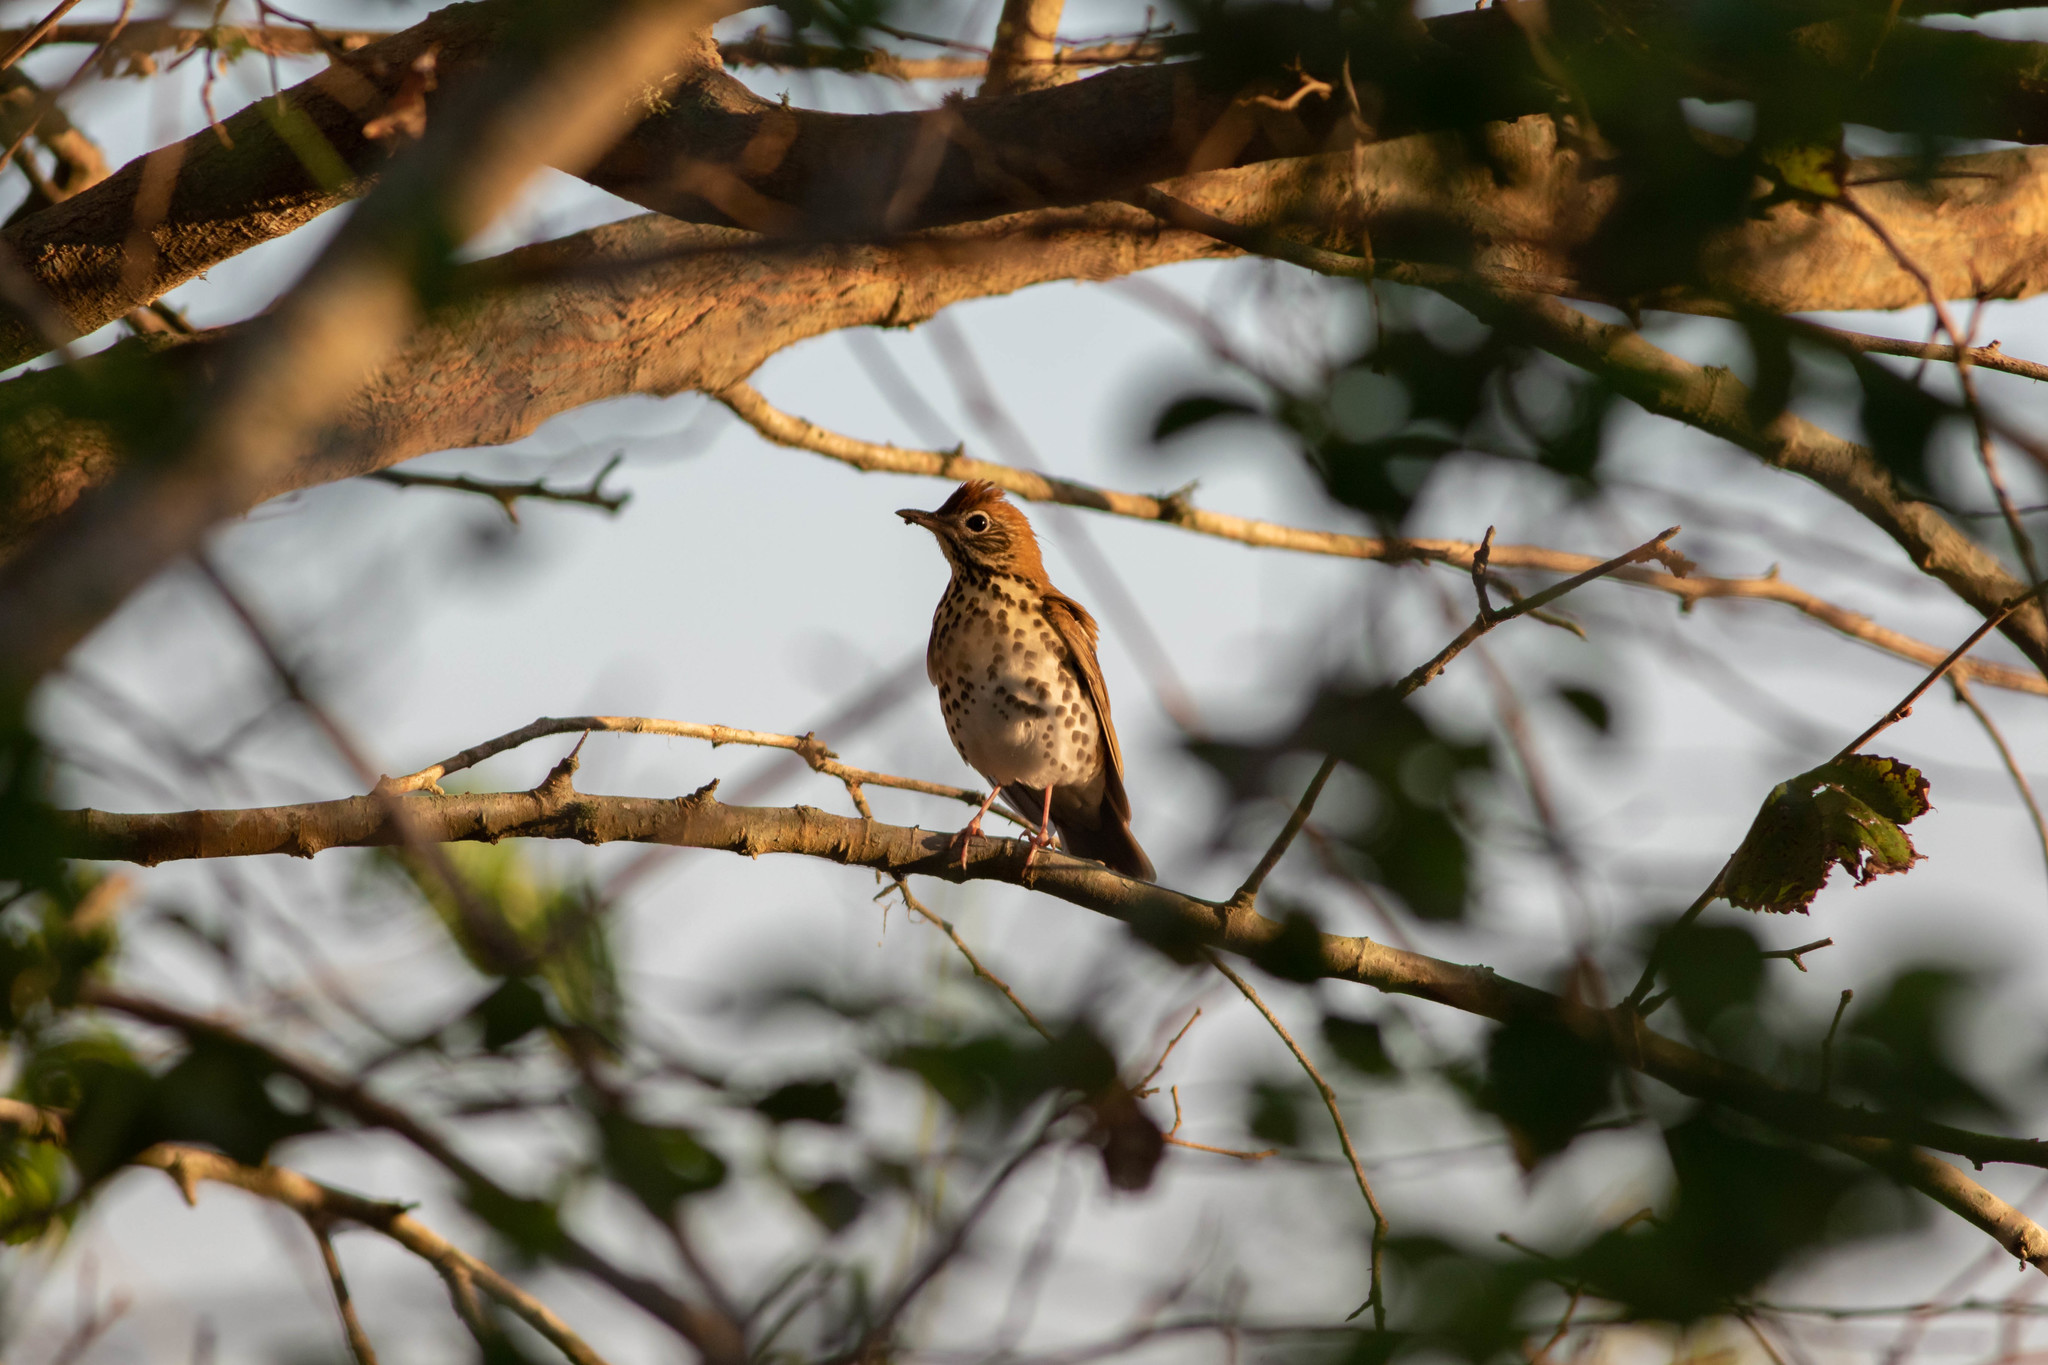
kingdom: Animalia
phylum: Chordata
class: Aves
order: Passeriformes
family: Turdidae
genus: Hylocichla
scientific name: Hylocichla mustelina
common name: Wood thrush
